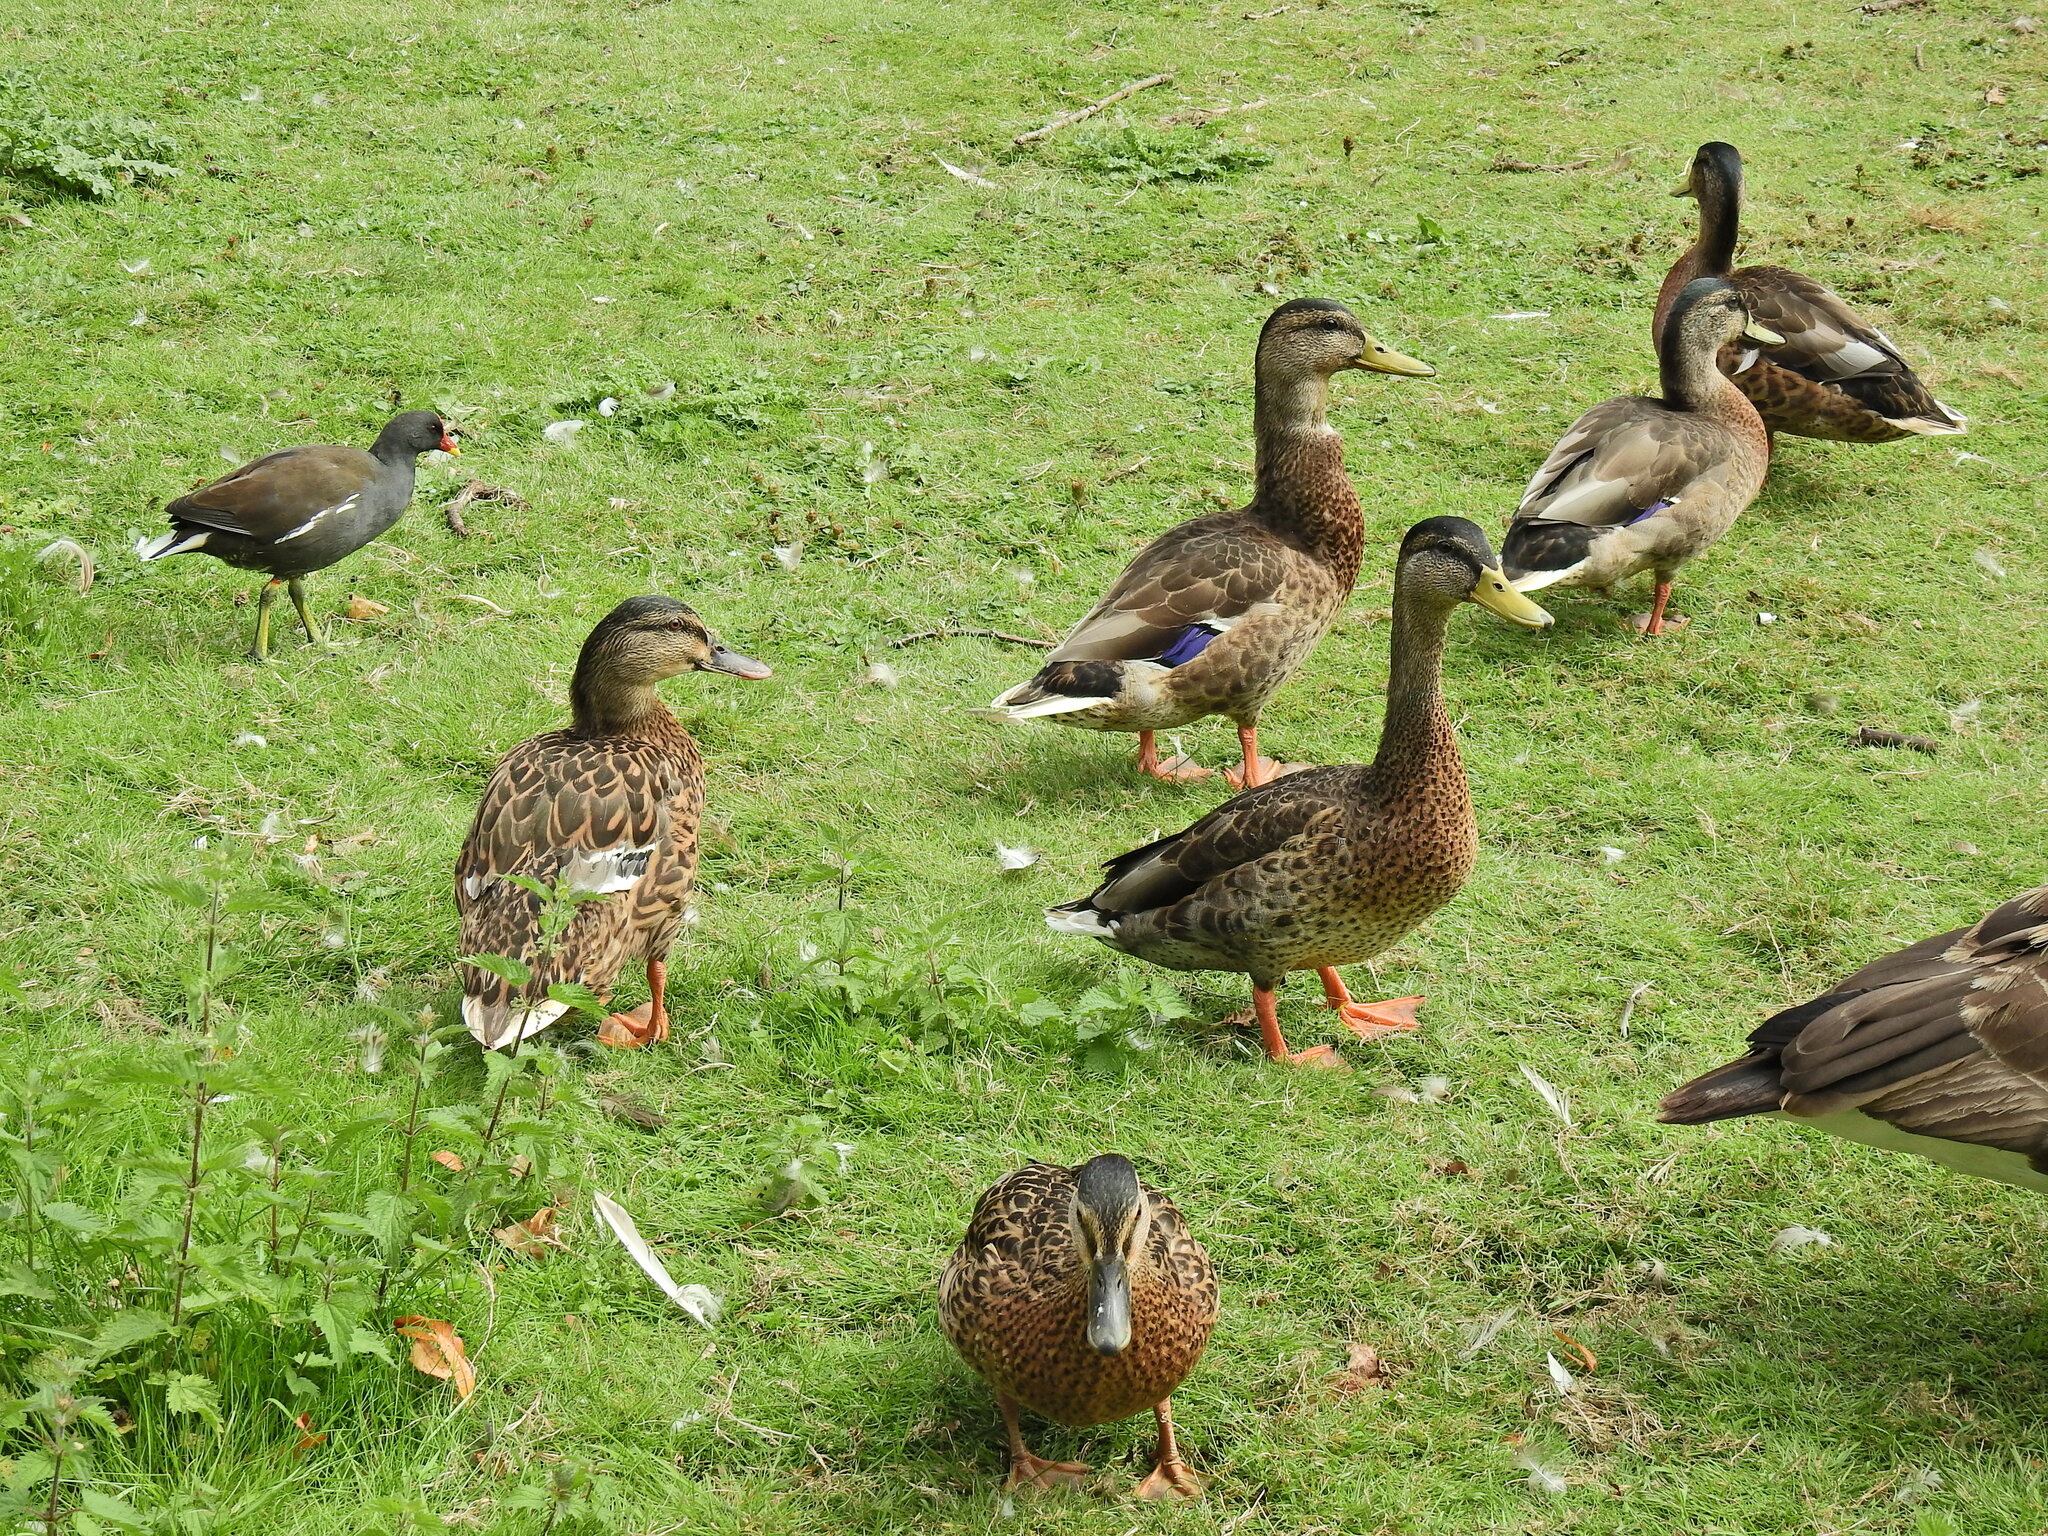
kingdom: Animalia
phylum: Chordata
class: Aves
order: Anseriformes
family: Anatidae
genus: Anas
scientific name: Anas platyrhynchos
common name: Mallard
